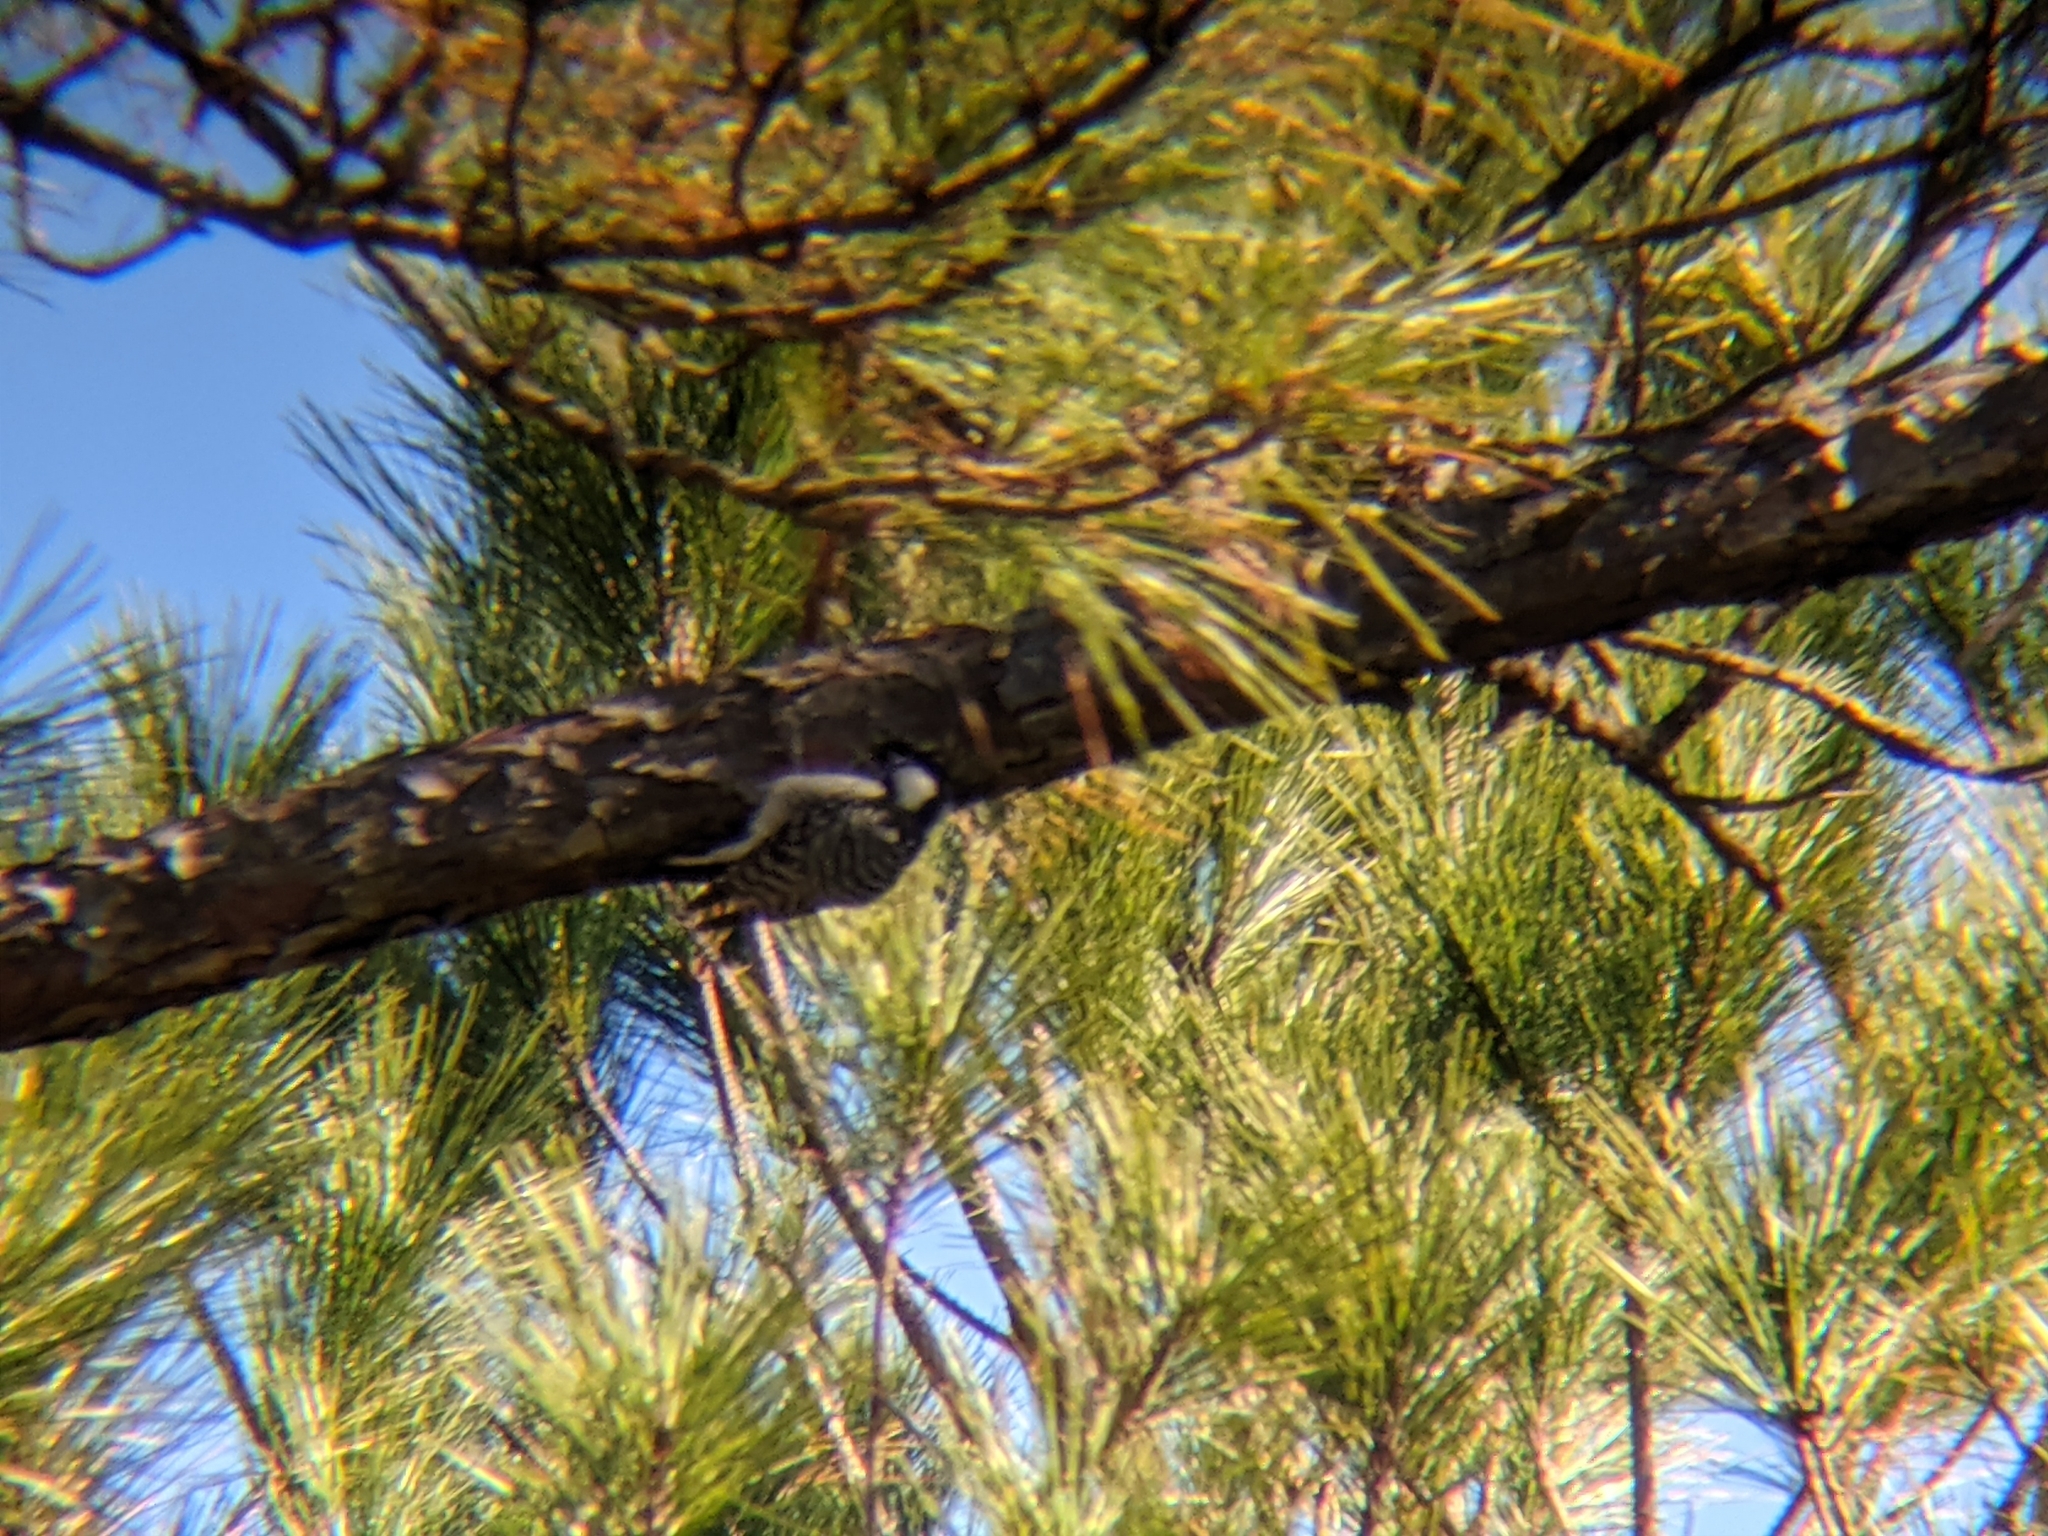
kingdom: Animalia
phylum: Chordata
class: Aves
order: Piciformes
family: Picidae
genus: Leuconotopicus
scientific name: Leuconotopicus borealis
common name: Red-cockaded woodpecker
